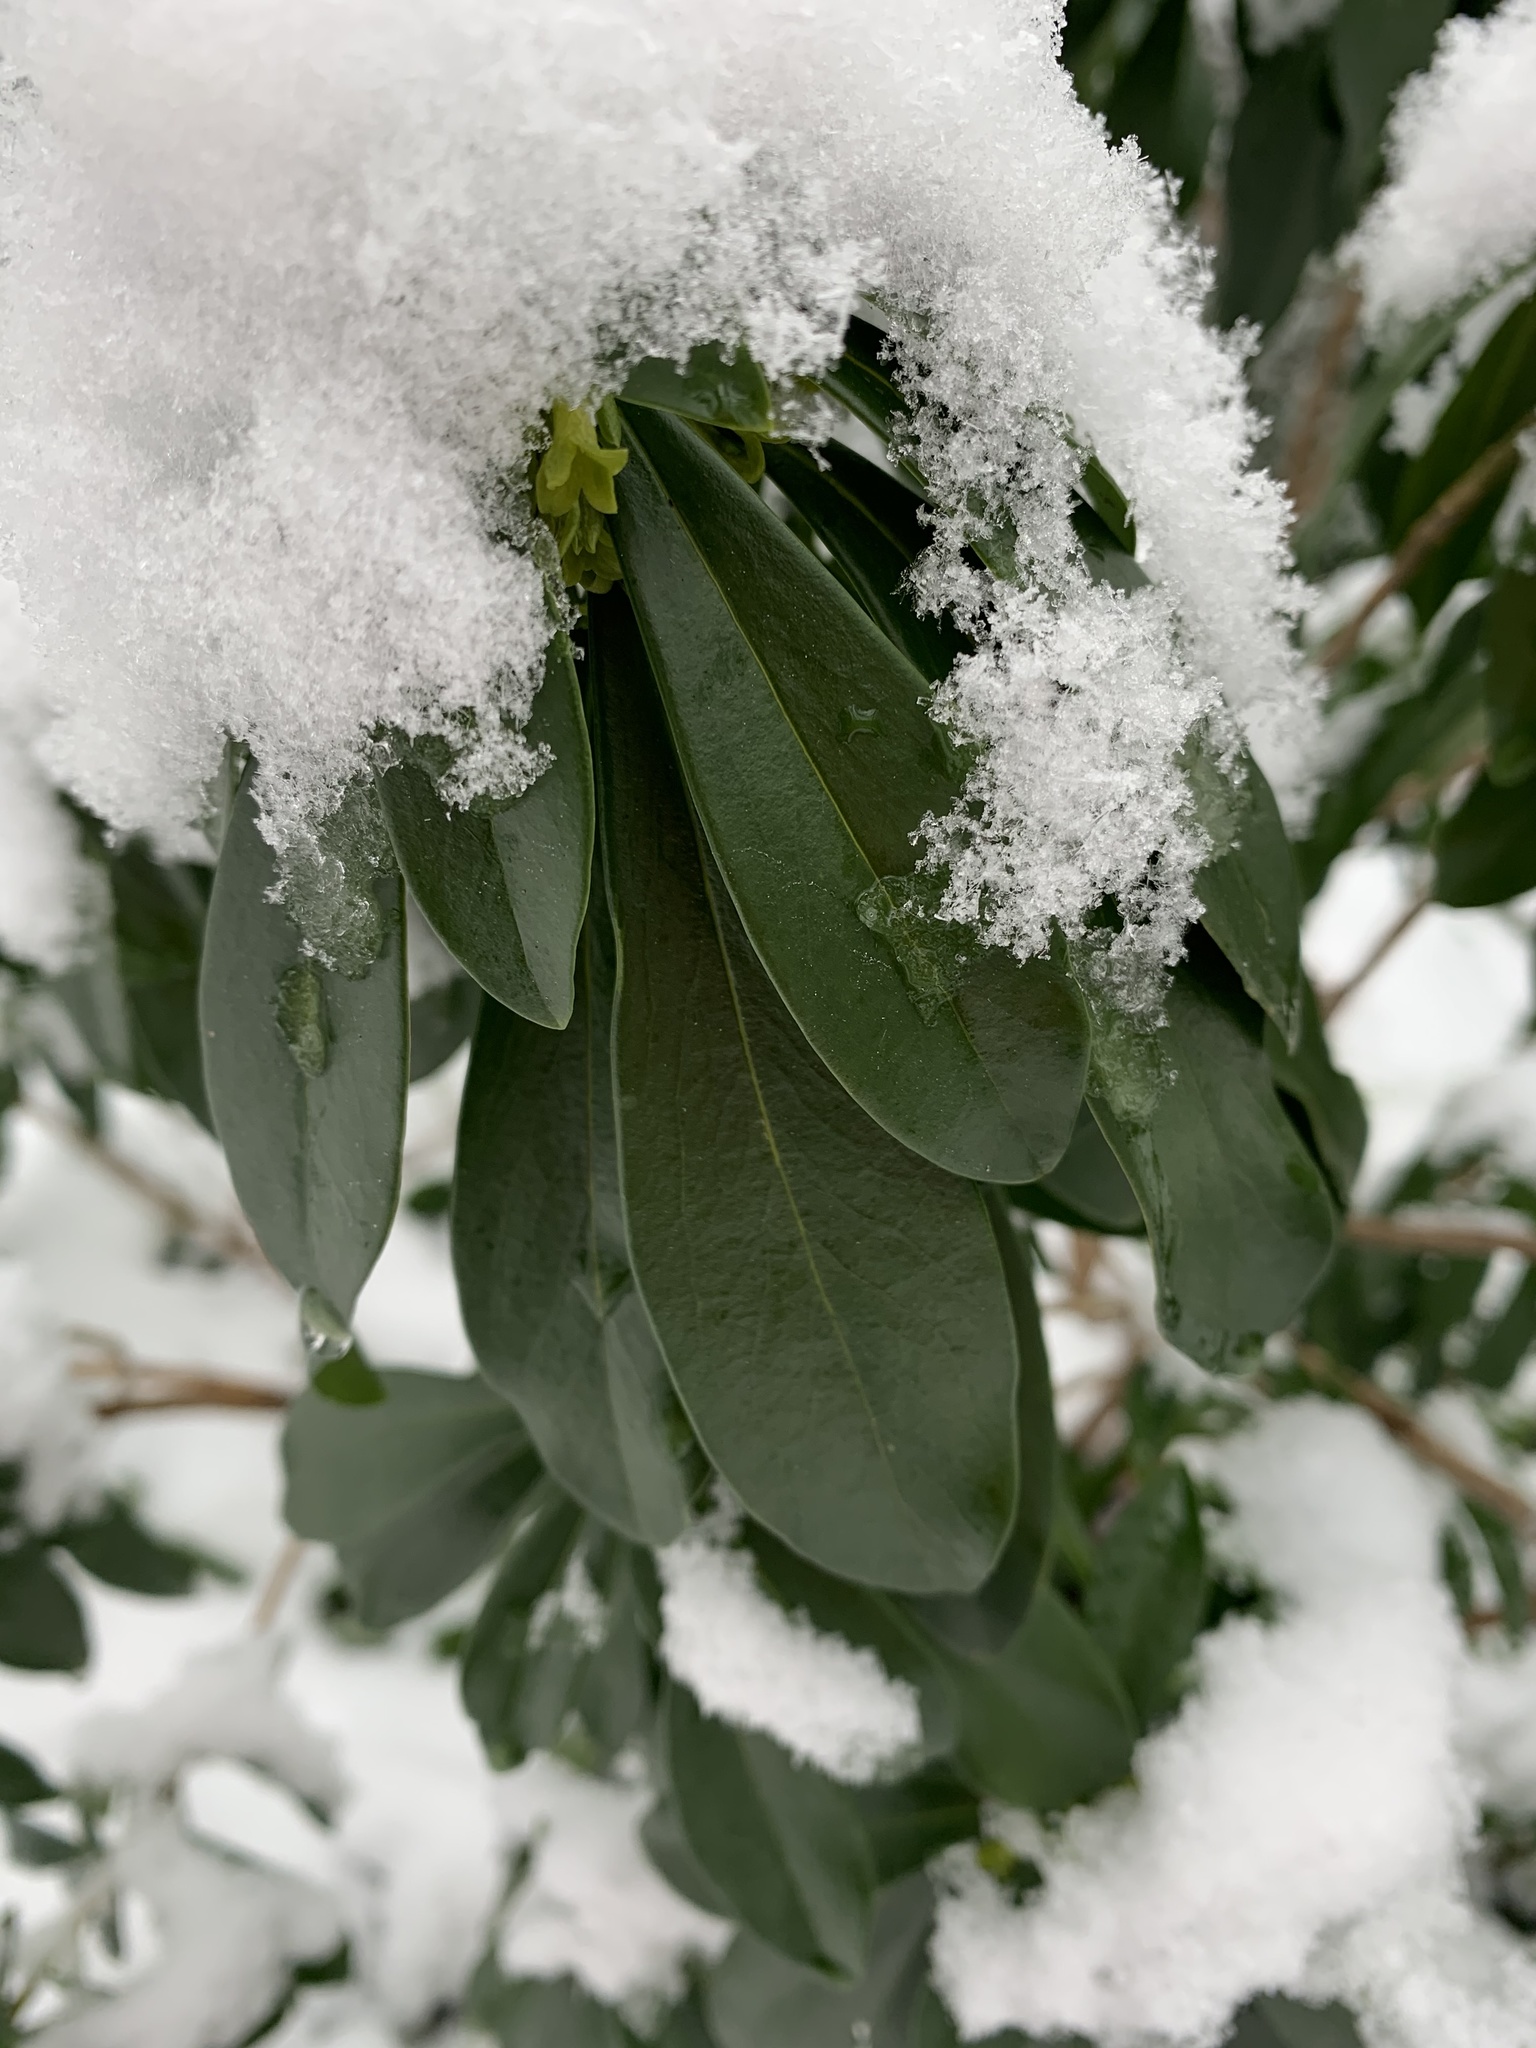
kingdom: Plantae
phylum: Tracheophyta
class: Magnoliopsida
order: Malvales
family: Thymelaeaceae
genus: Daphne
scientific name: Daphne laureola
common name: Spurge-laurel
